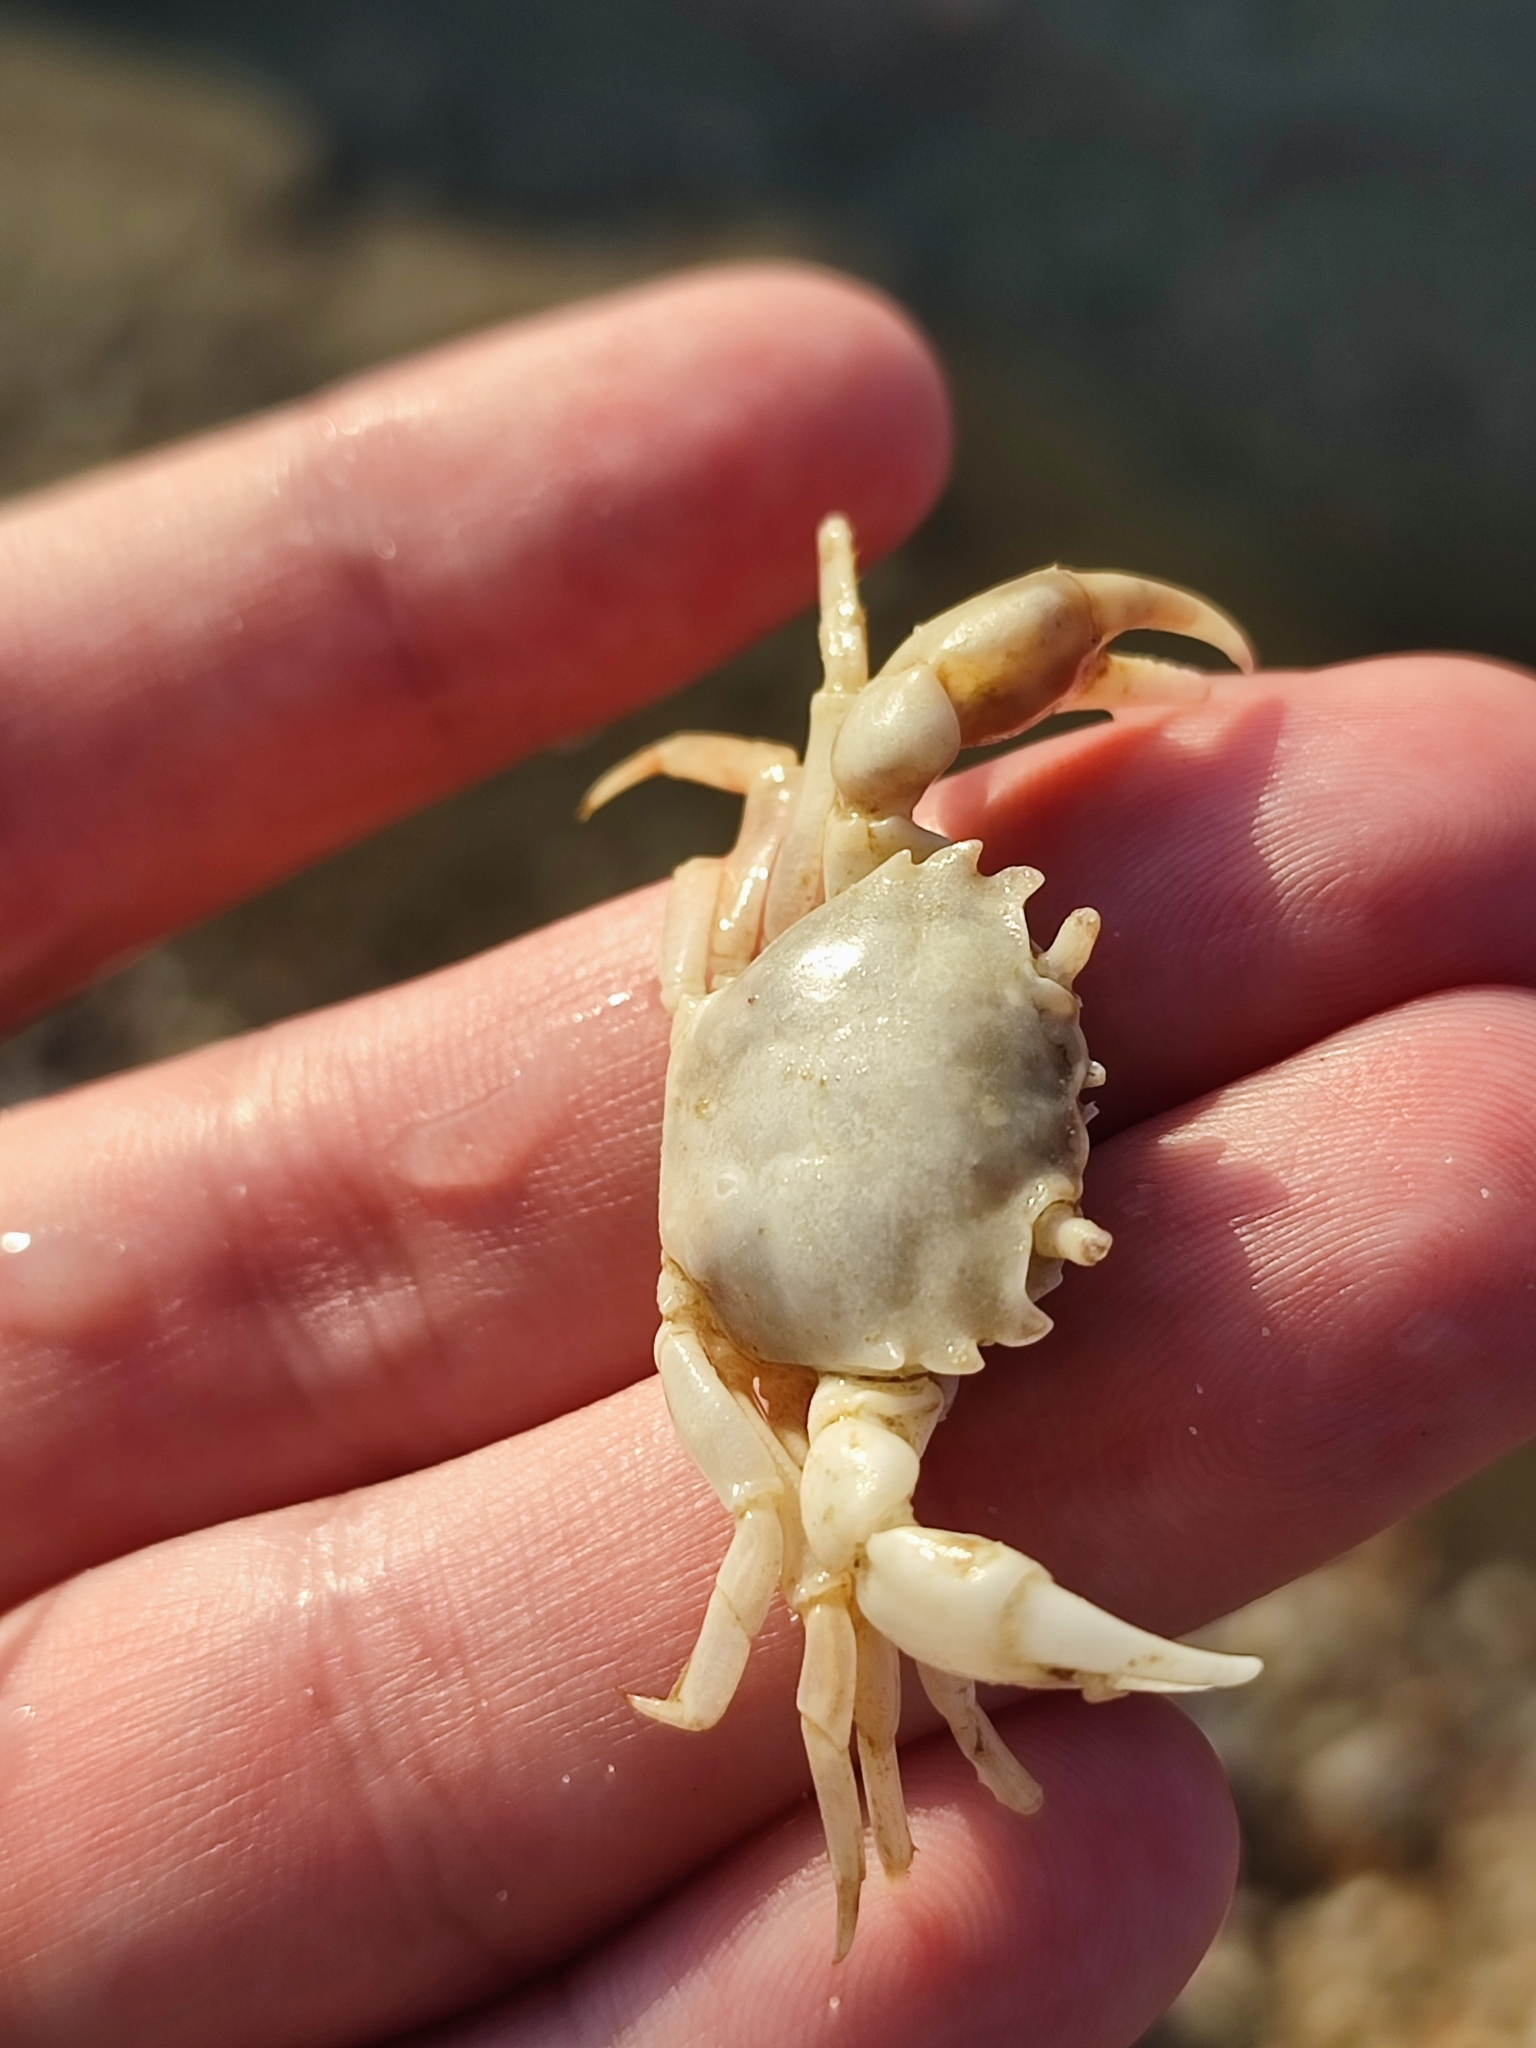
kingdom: Animalia
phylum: Arthropoda
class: Malacostraca
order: Decapoda
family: Varunidae
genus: Brachynotus
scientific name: Brachynotus sexdentatus
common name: Mediterranean crab
